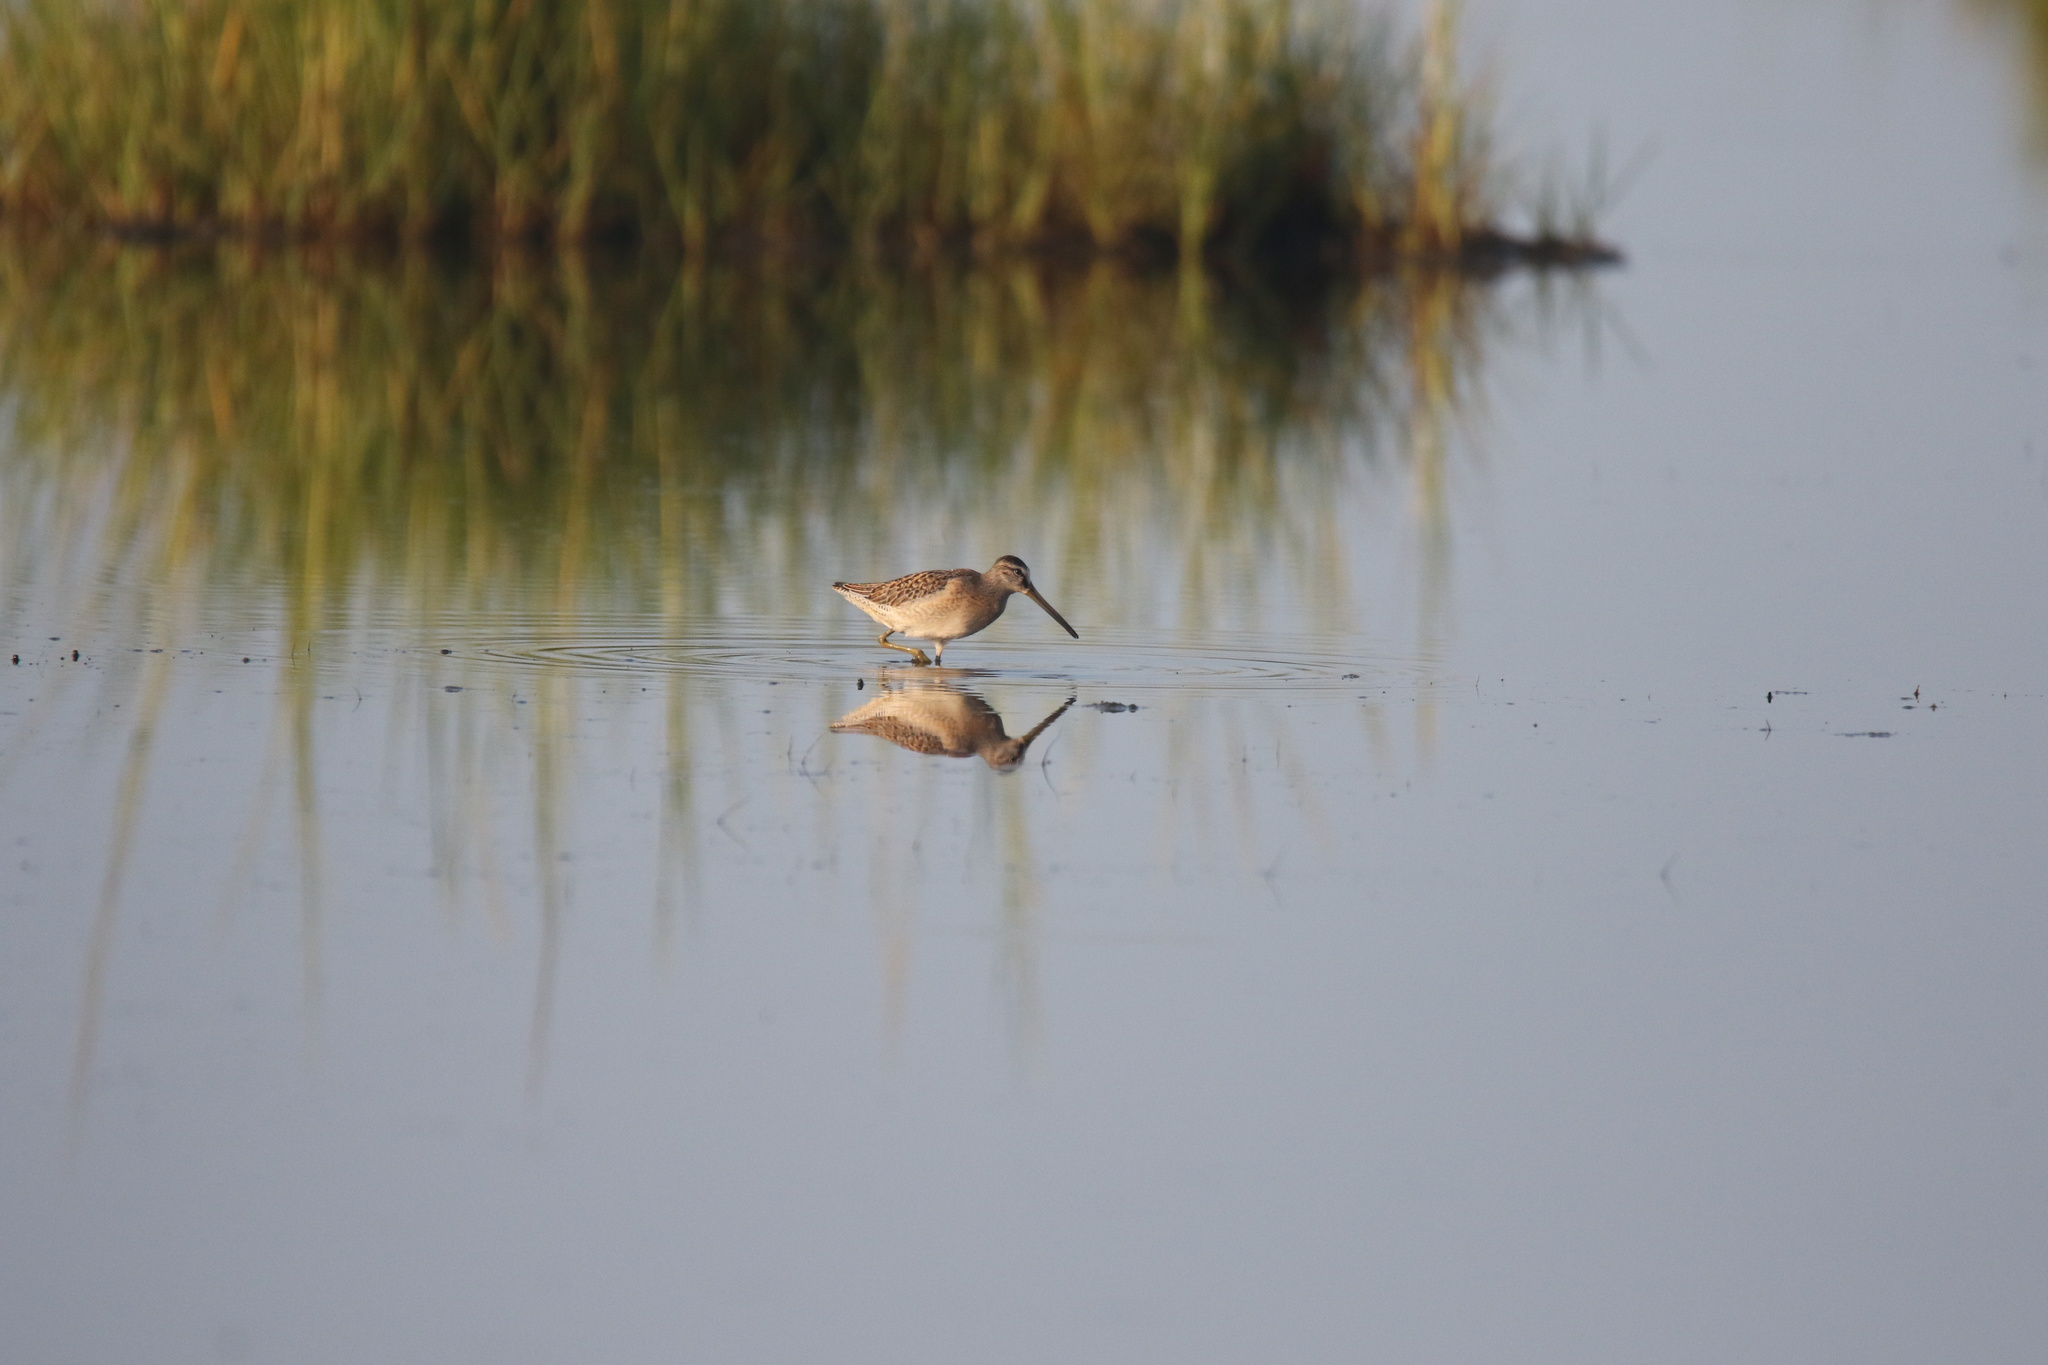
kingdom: Animalia
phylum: Chordata
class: Aves
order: Charadriiformes
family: Scolopacidae
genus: Limnodromus
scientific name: Limnodromus griseus
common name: Short-billed dowitcher
